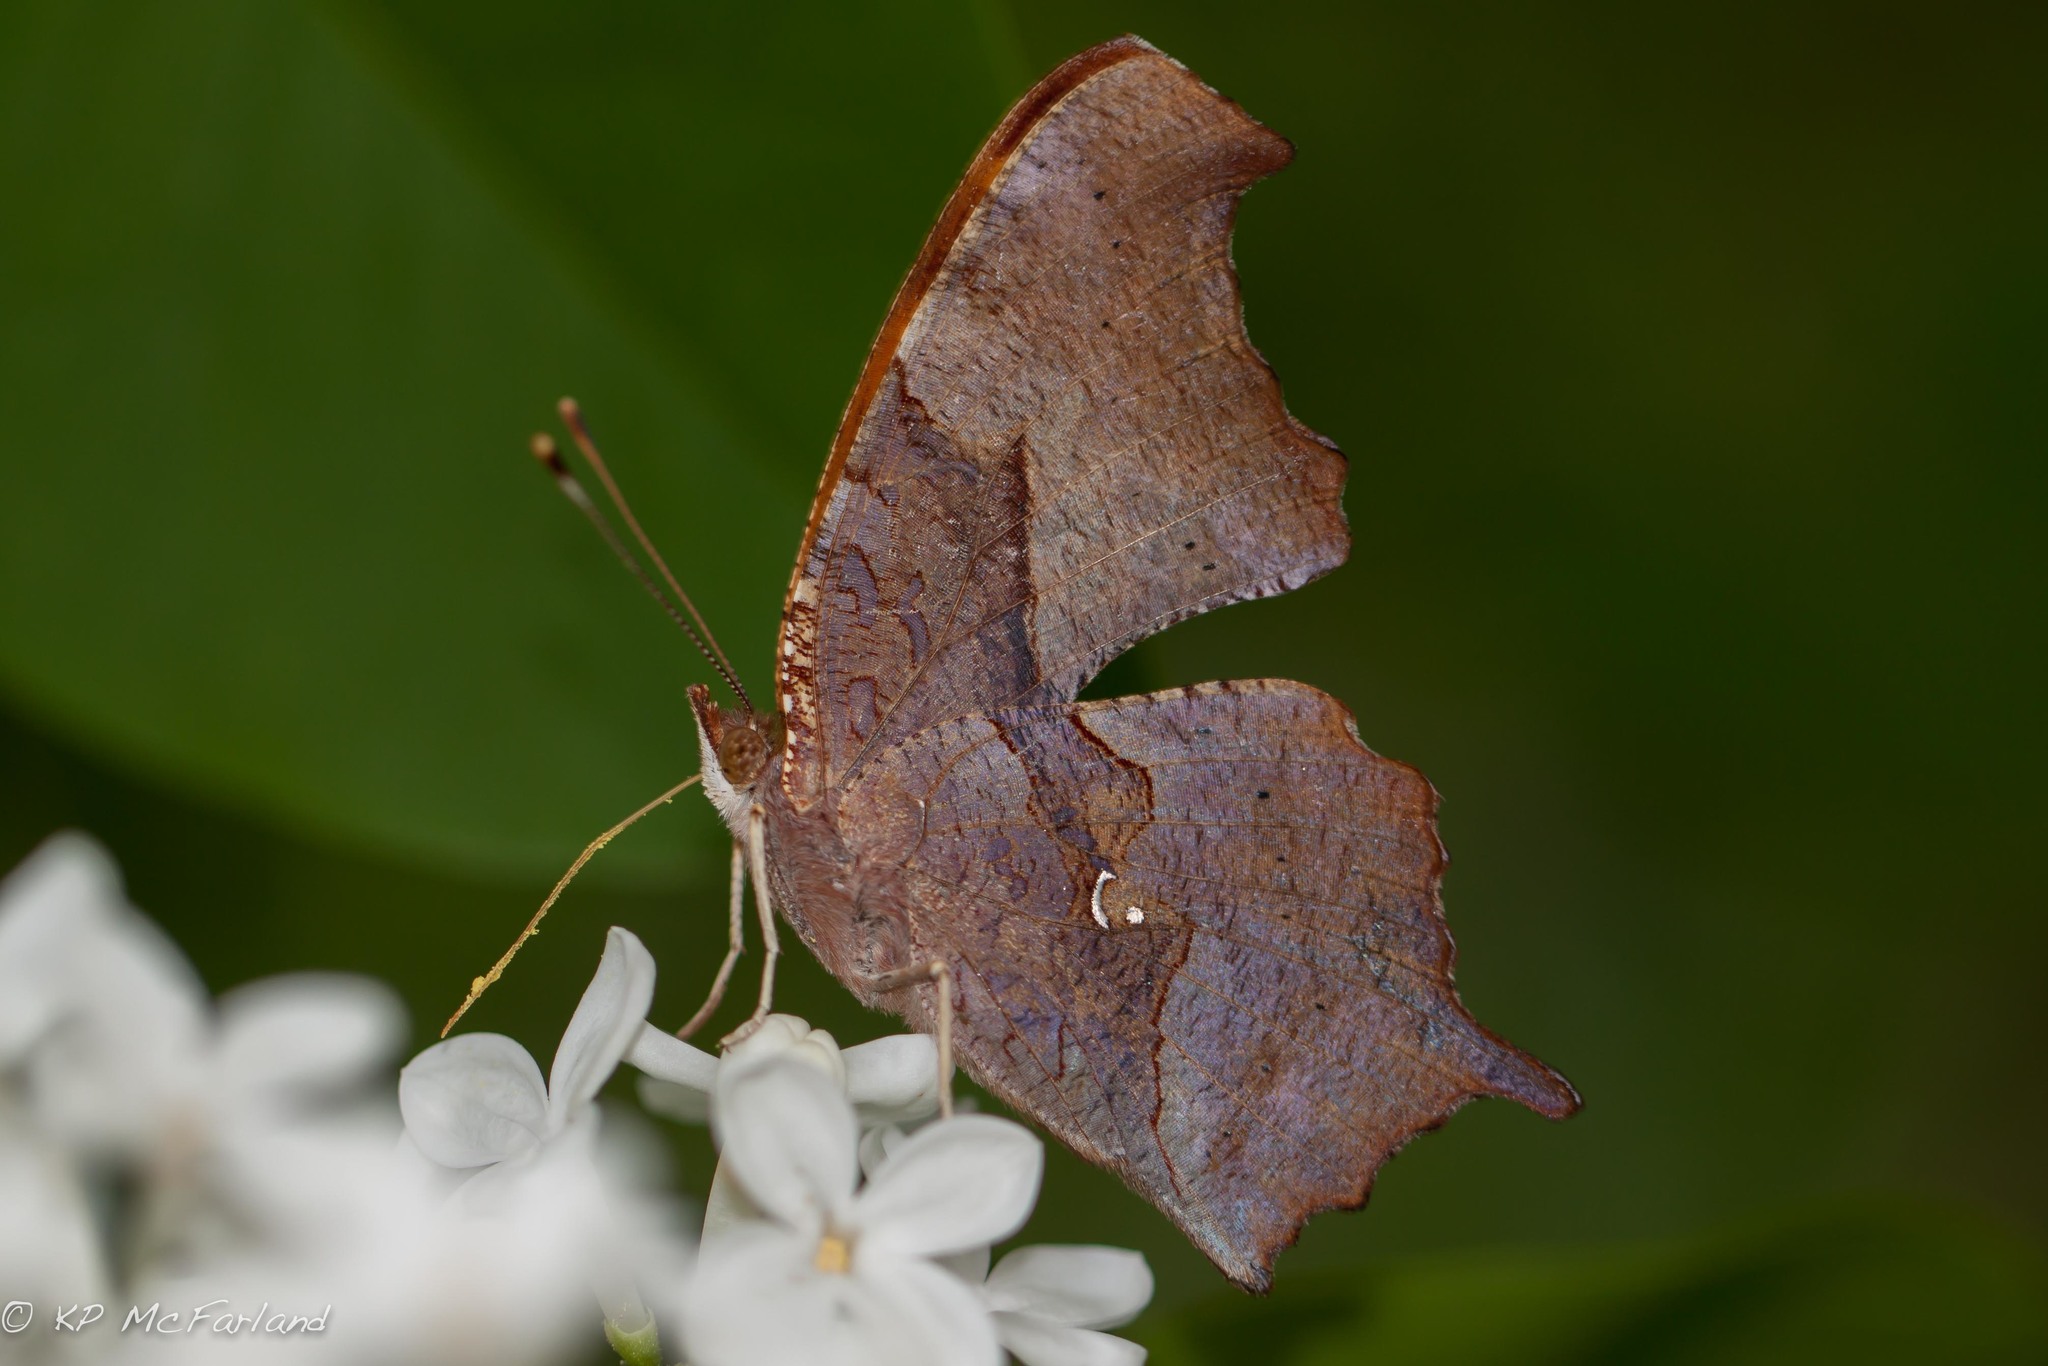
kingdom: Animalia
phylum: Arthropoda
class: Insecta
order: Lepidoptera
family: Nymphalidae
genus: Polygonia
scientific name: Polygonia interrogationis
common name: Question mark
